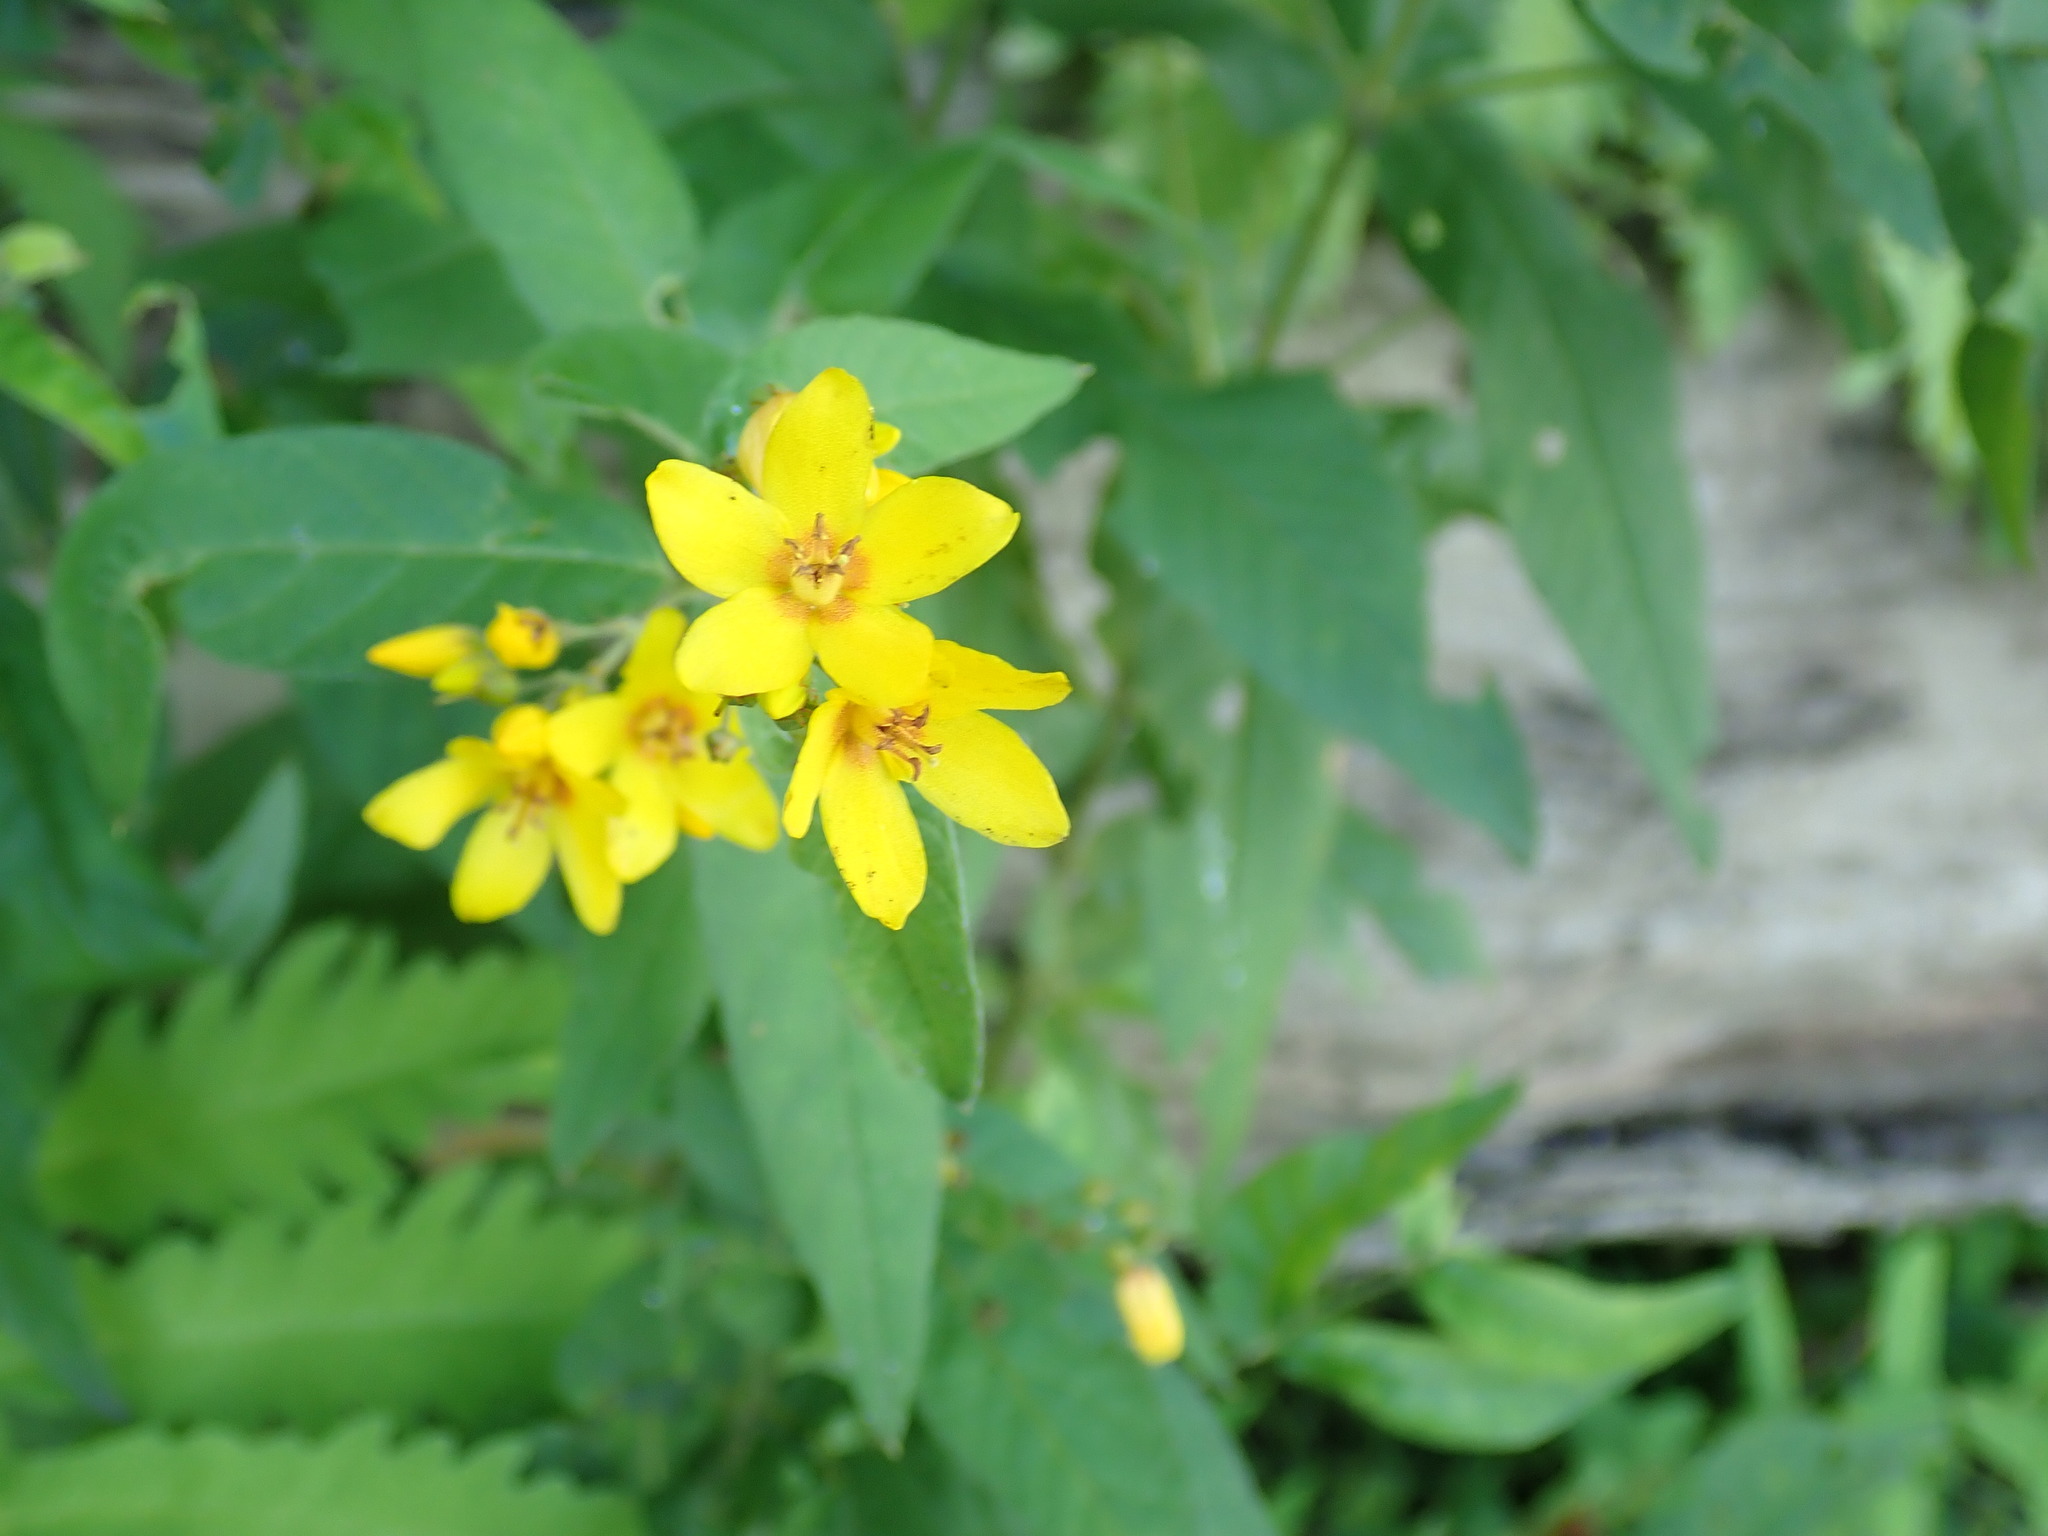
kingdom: Plantae
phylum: Tracheophyta
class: Magnoliopsida
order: Ericales
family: Primulaceae
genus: Lysimachia
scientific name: Lysimachia vulgaris
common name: Yellow loosestrife
